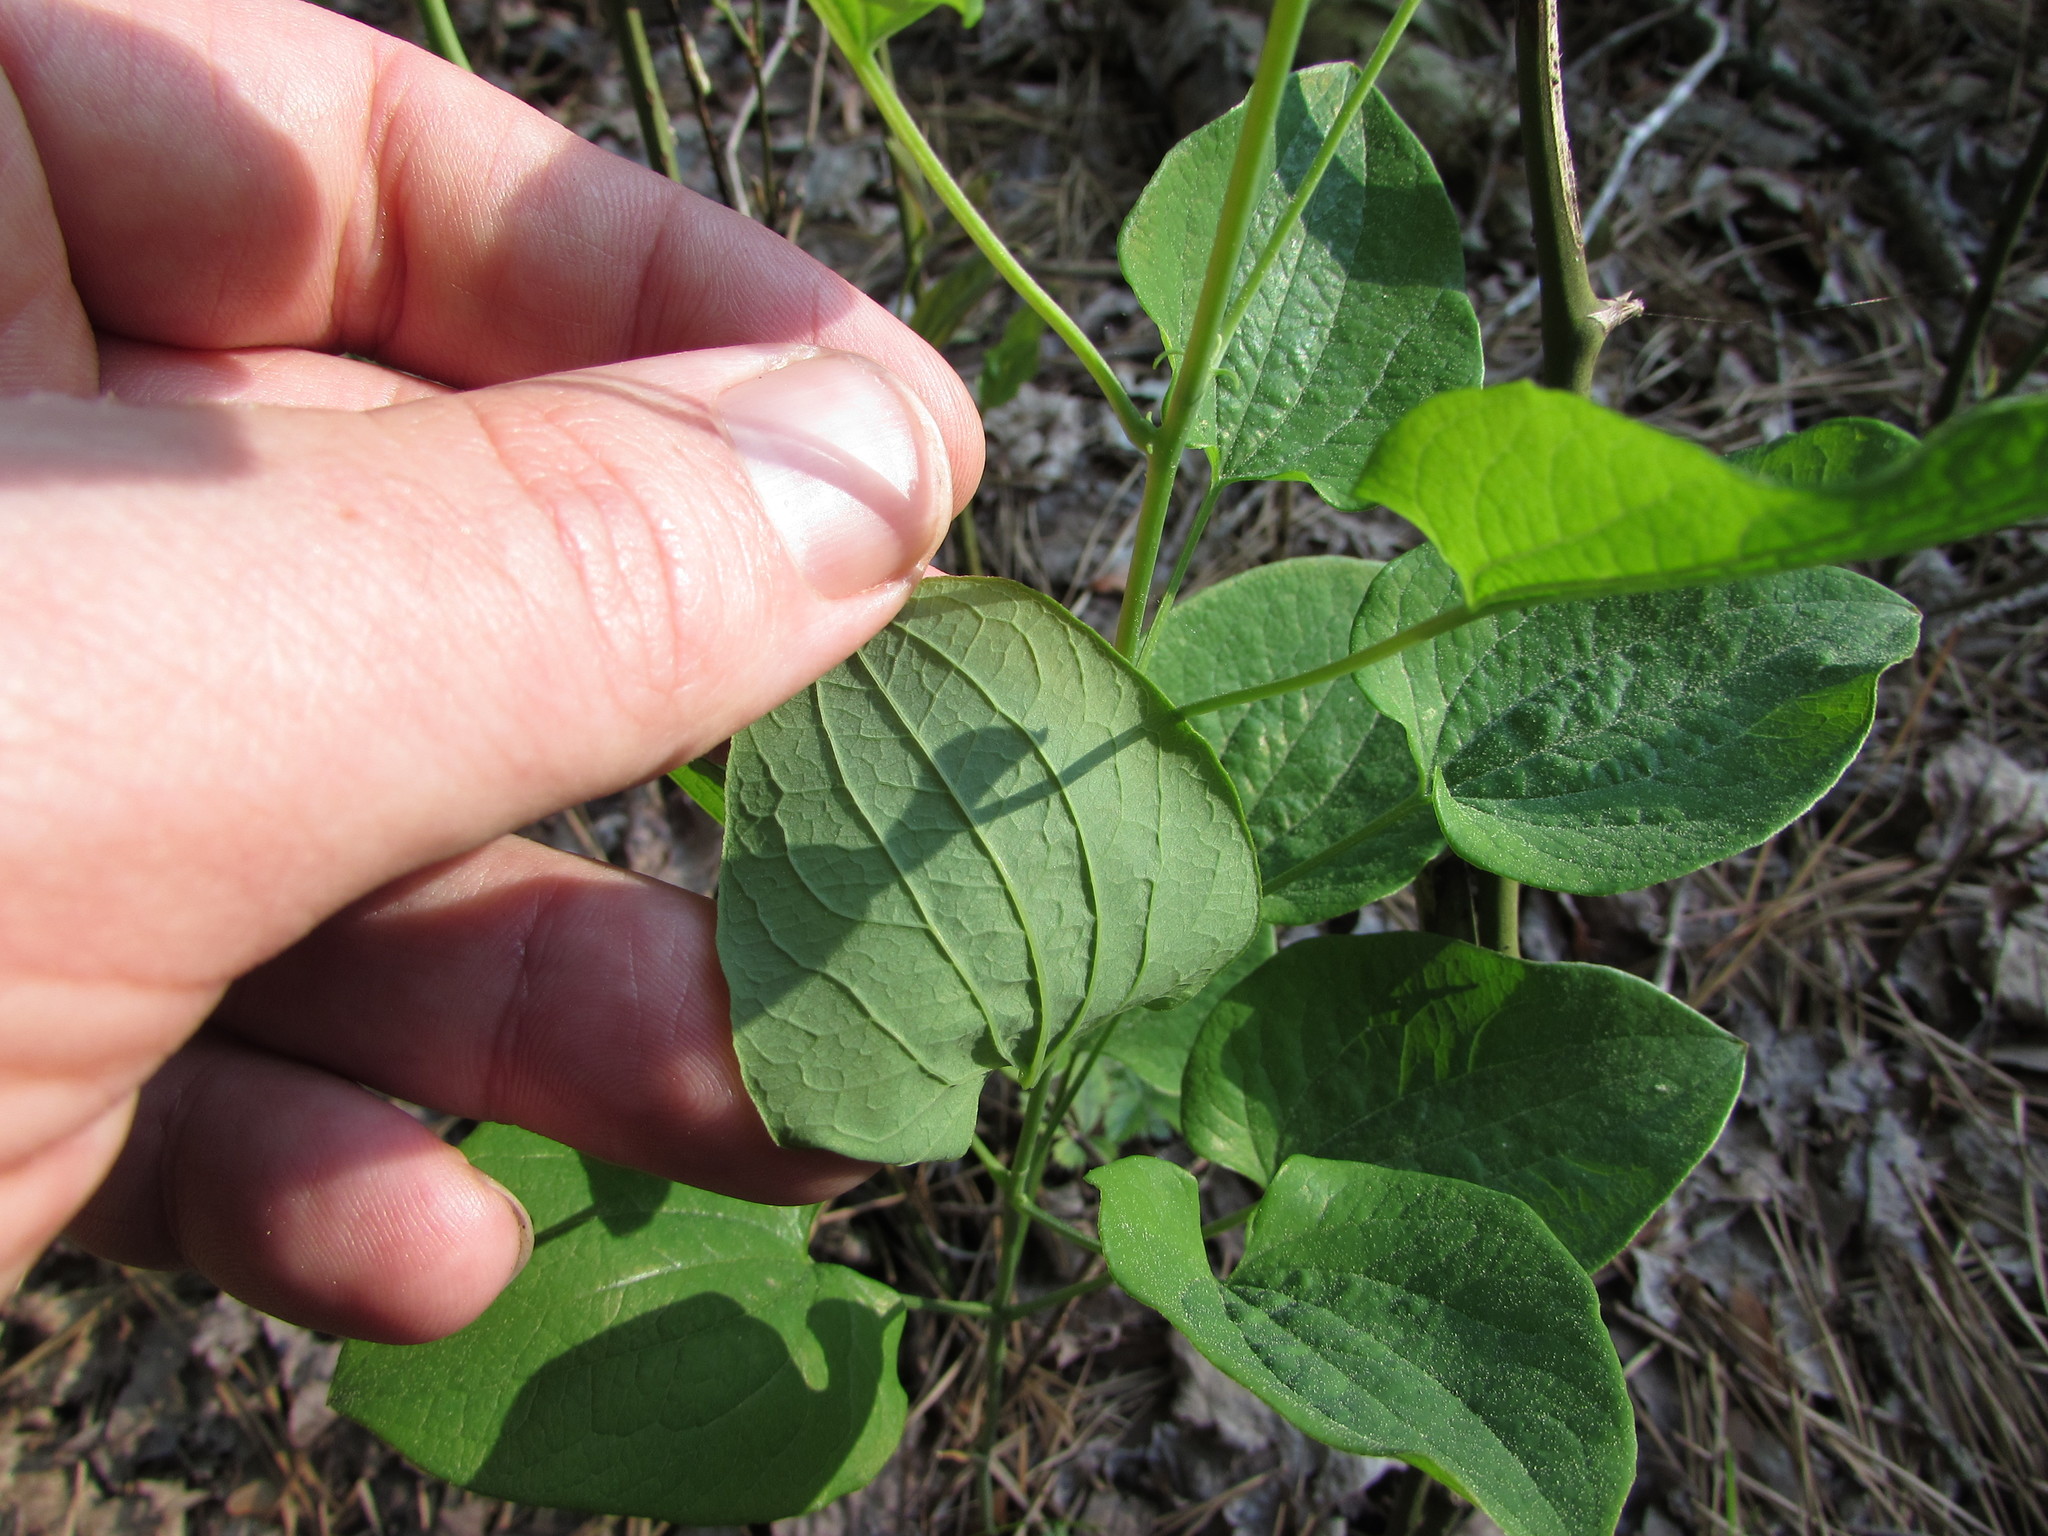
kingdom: Plantae
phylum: Tracheophyta
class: Liliopsida
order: Liliales
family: Smilacaceae
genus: Smilax
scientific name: Smilax herbacea
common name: Jacob's-ladder
